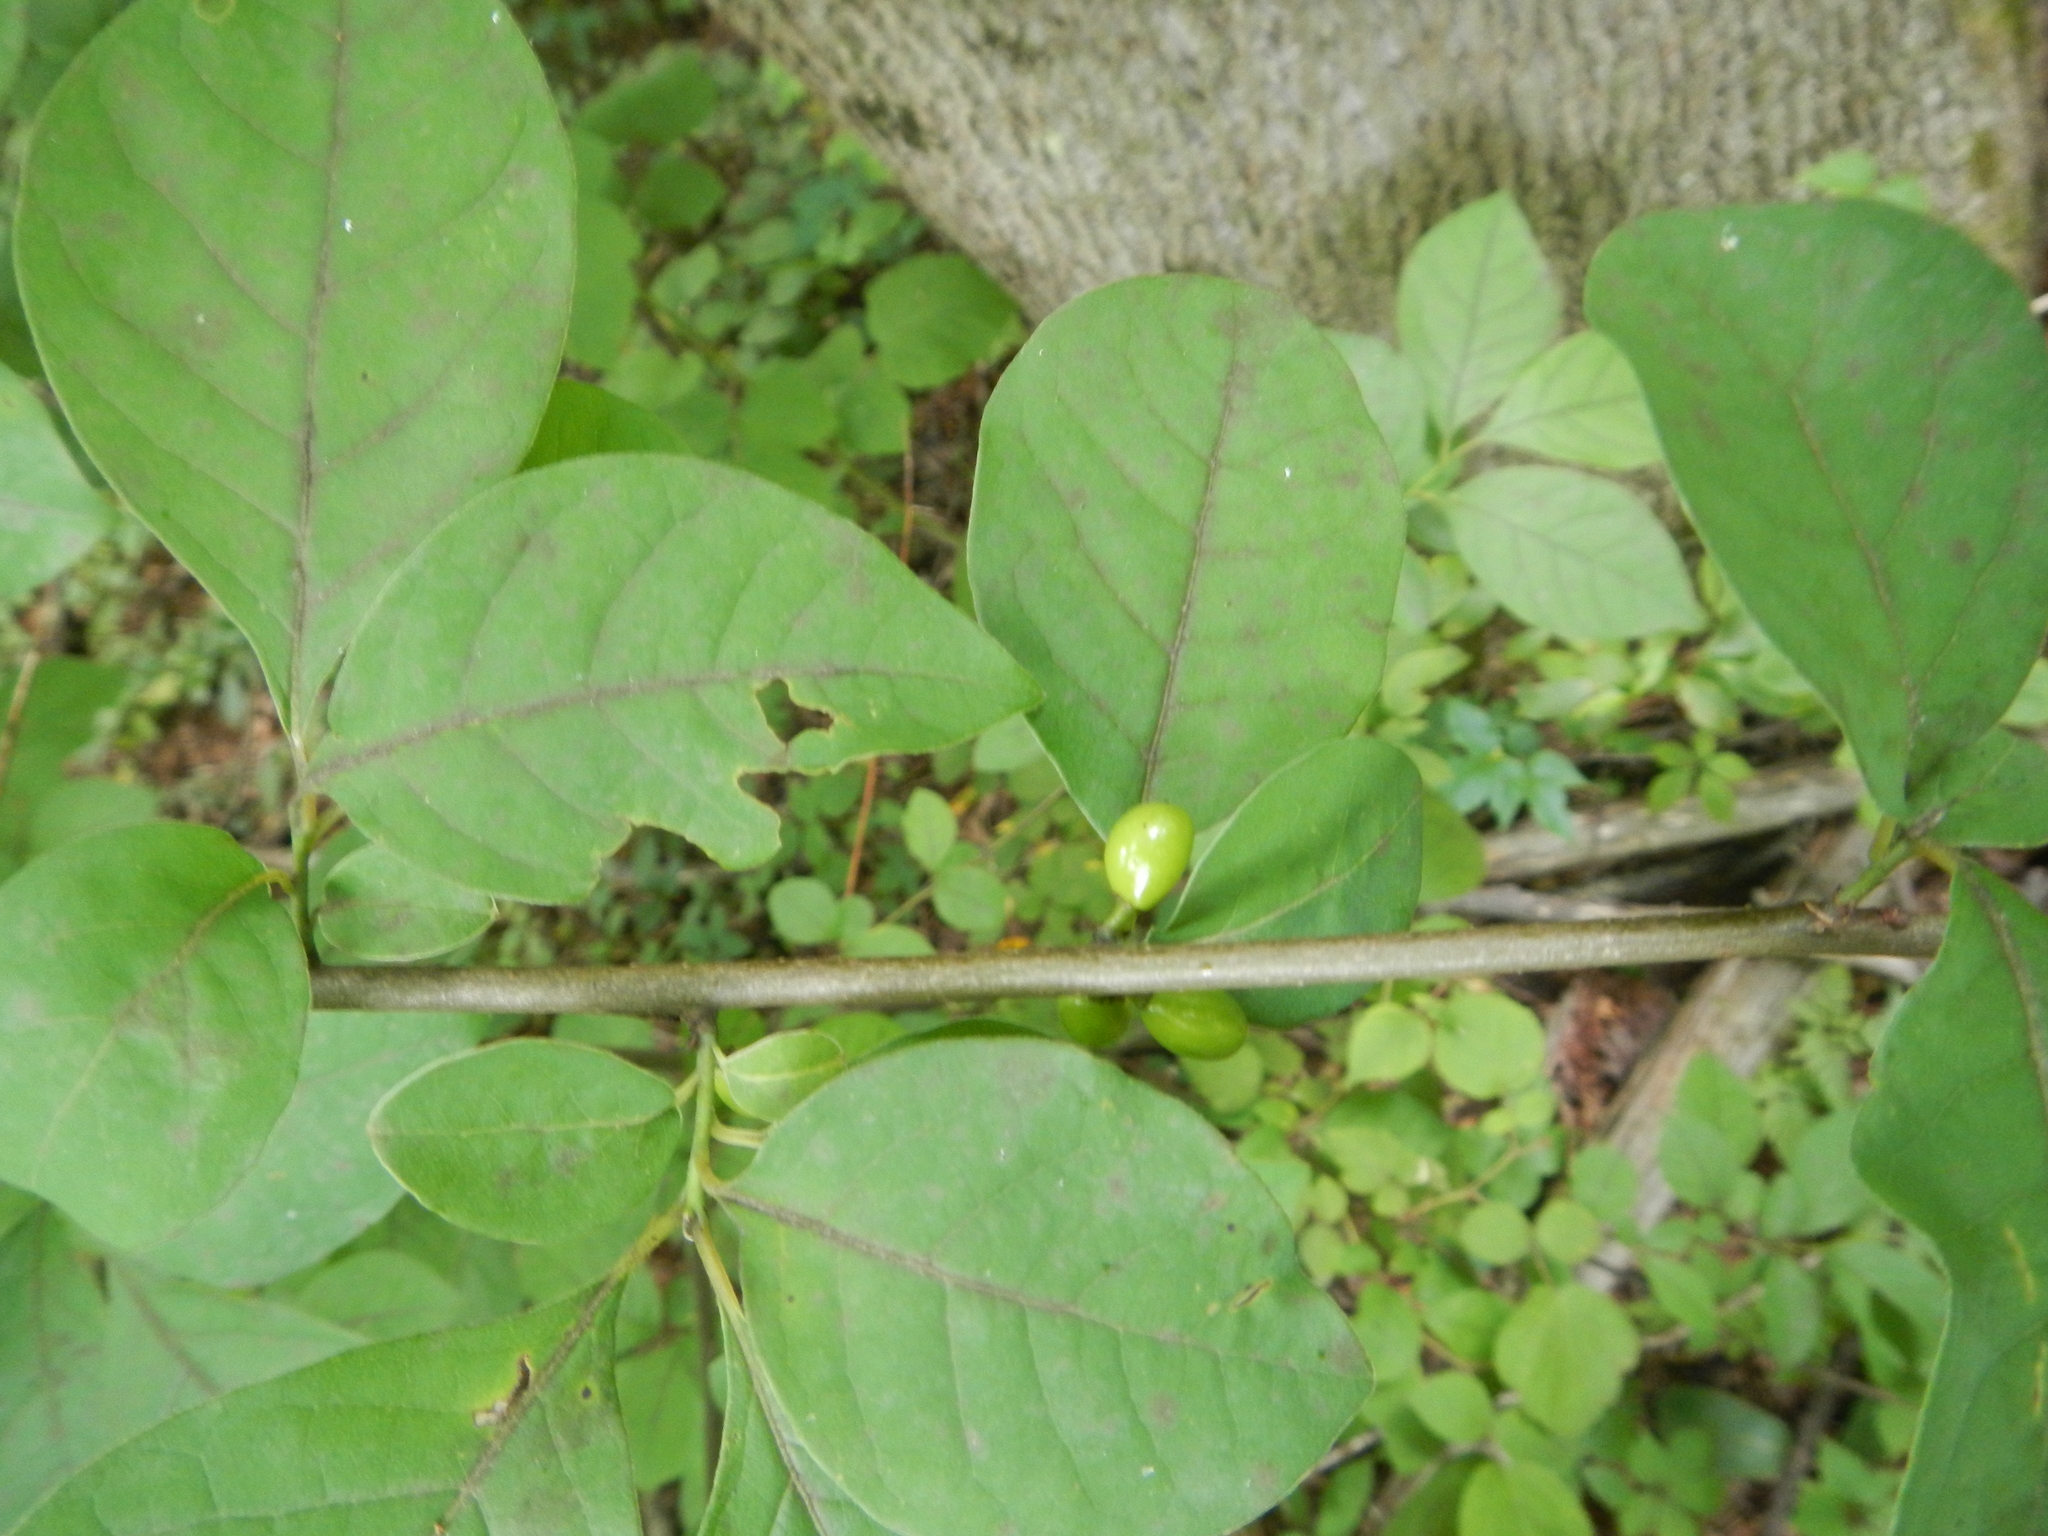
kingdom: Plantae
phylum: Tracheophyta
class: Magnoliopsida
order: Laurales
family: Lauraceae
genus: Lindera
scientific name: Lindera benzoin
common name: Spicebush
